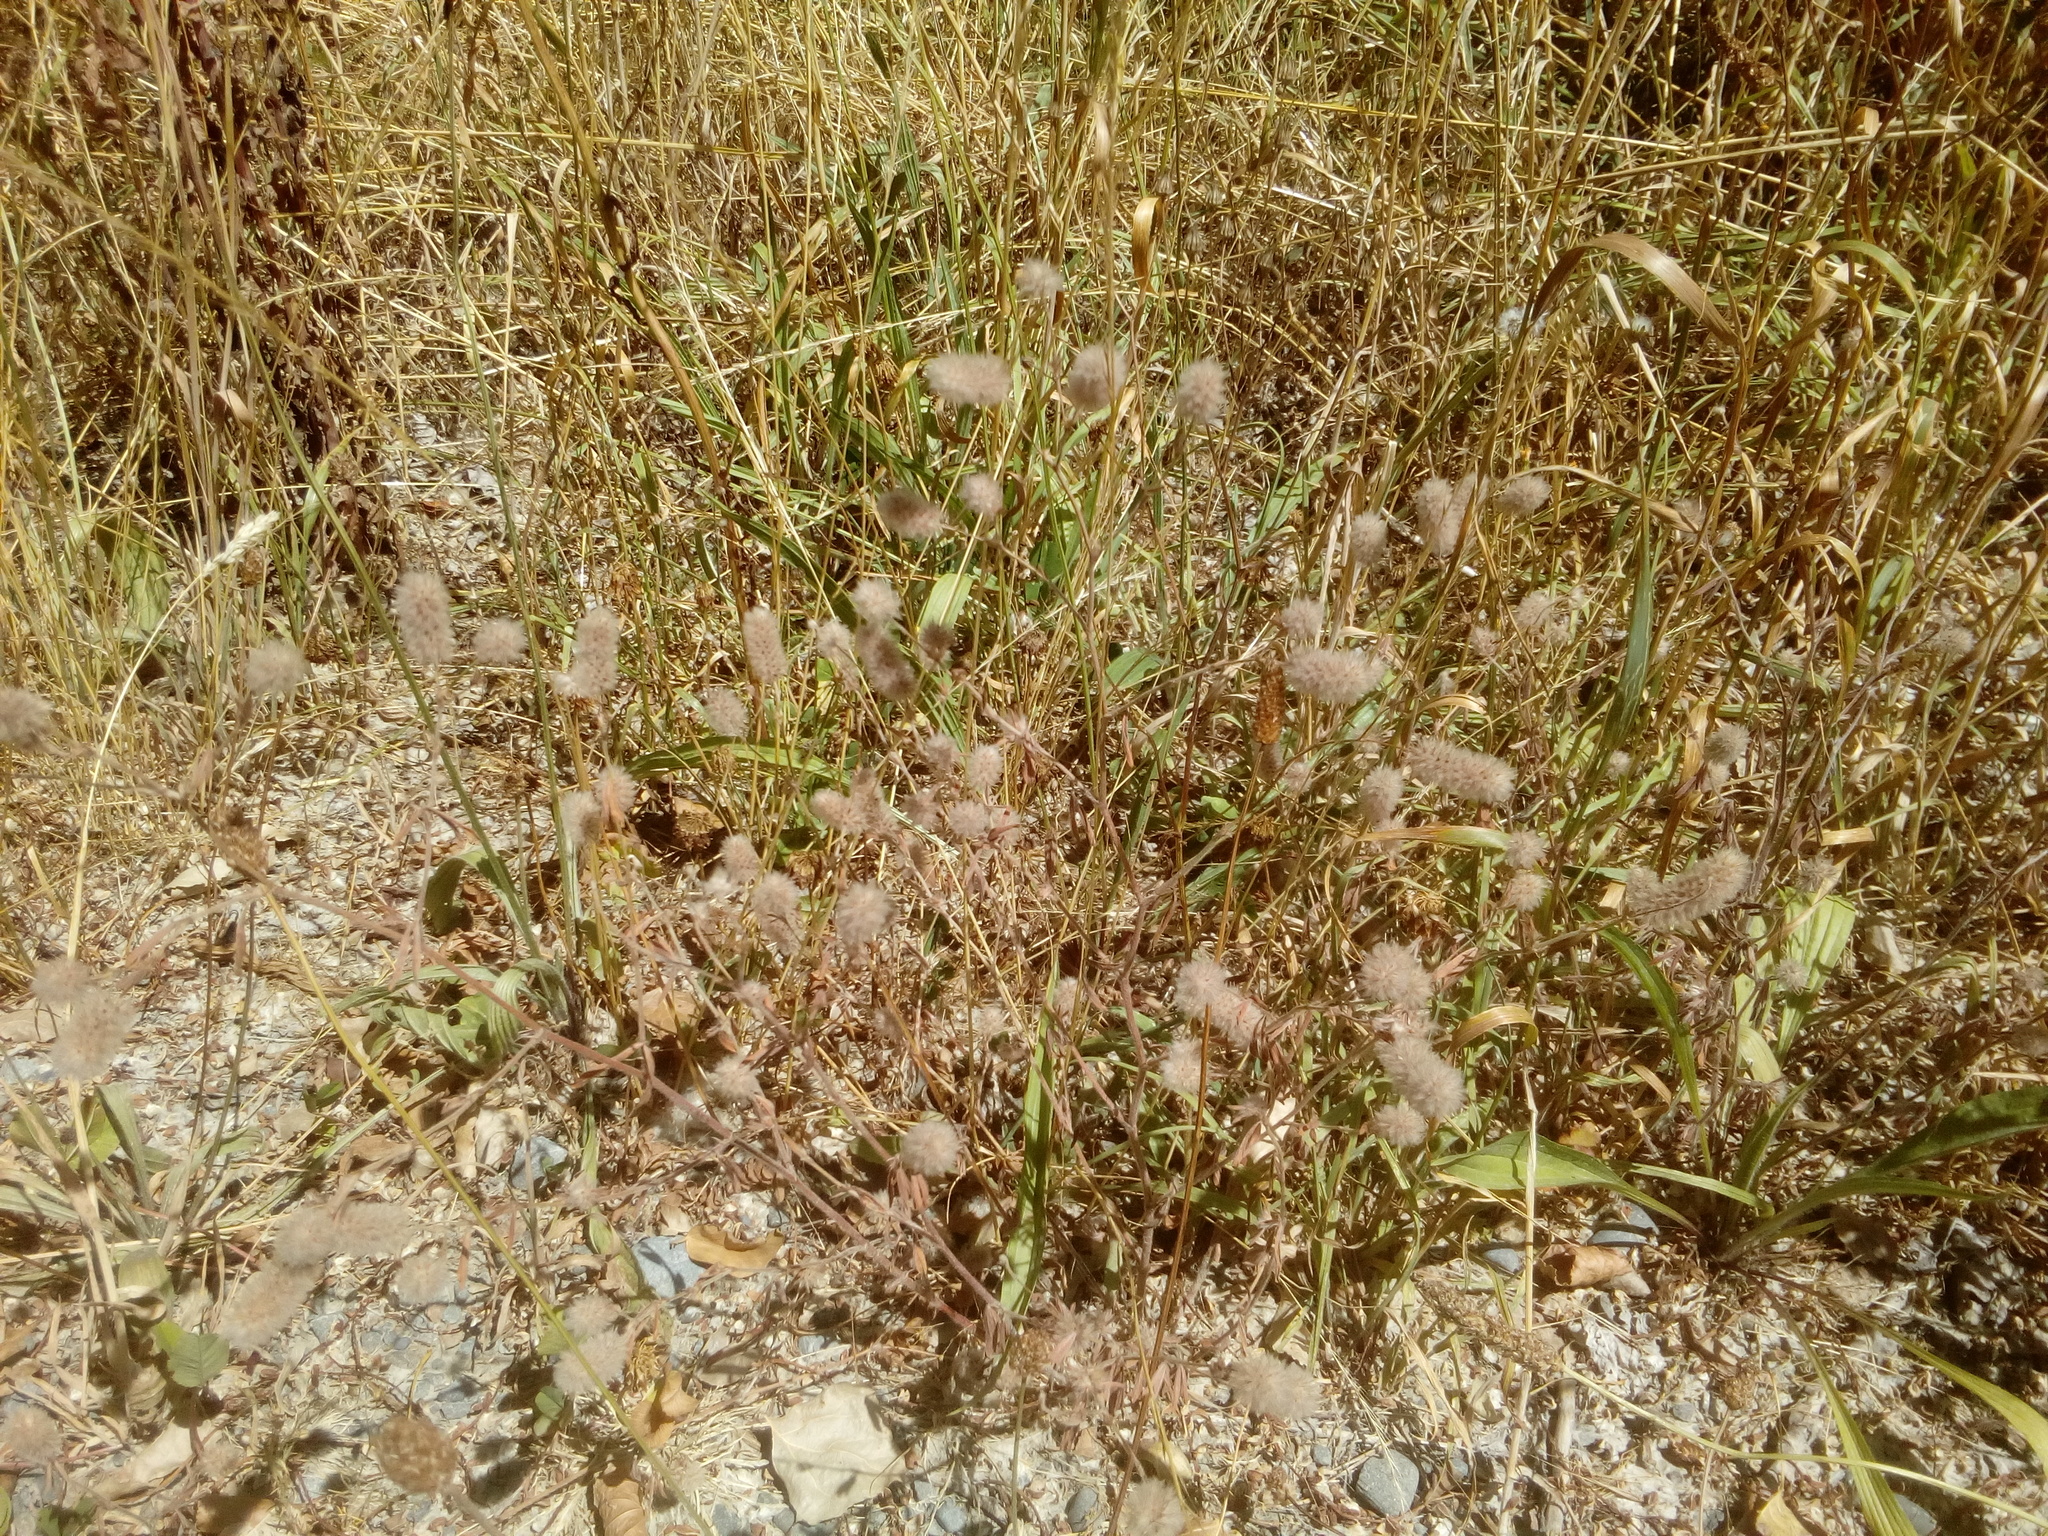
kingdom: Plantae
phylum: Tracheophyta
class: Magnoliopsida
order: Fabales
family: Fabaceae
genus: Trifolium
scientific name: Trifolium arvense
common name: Hare's-foot clover
